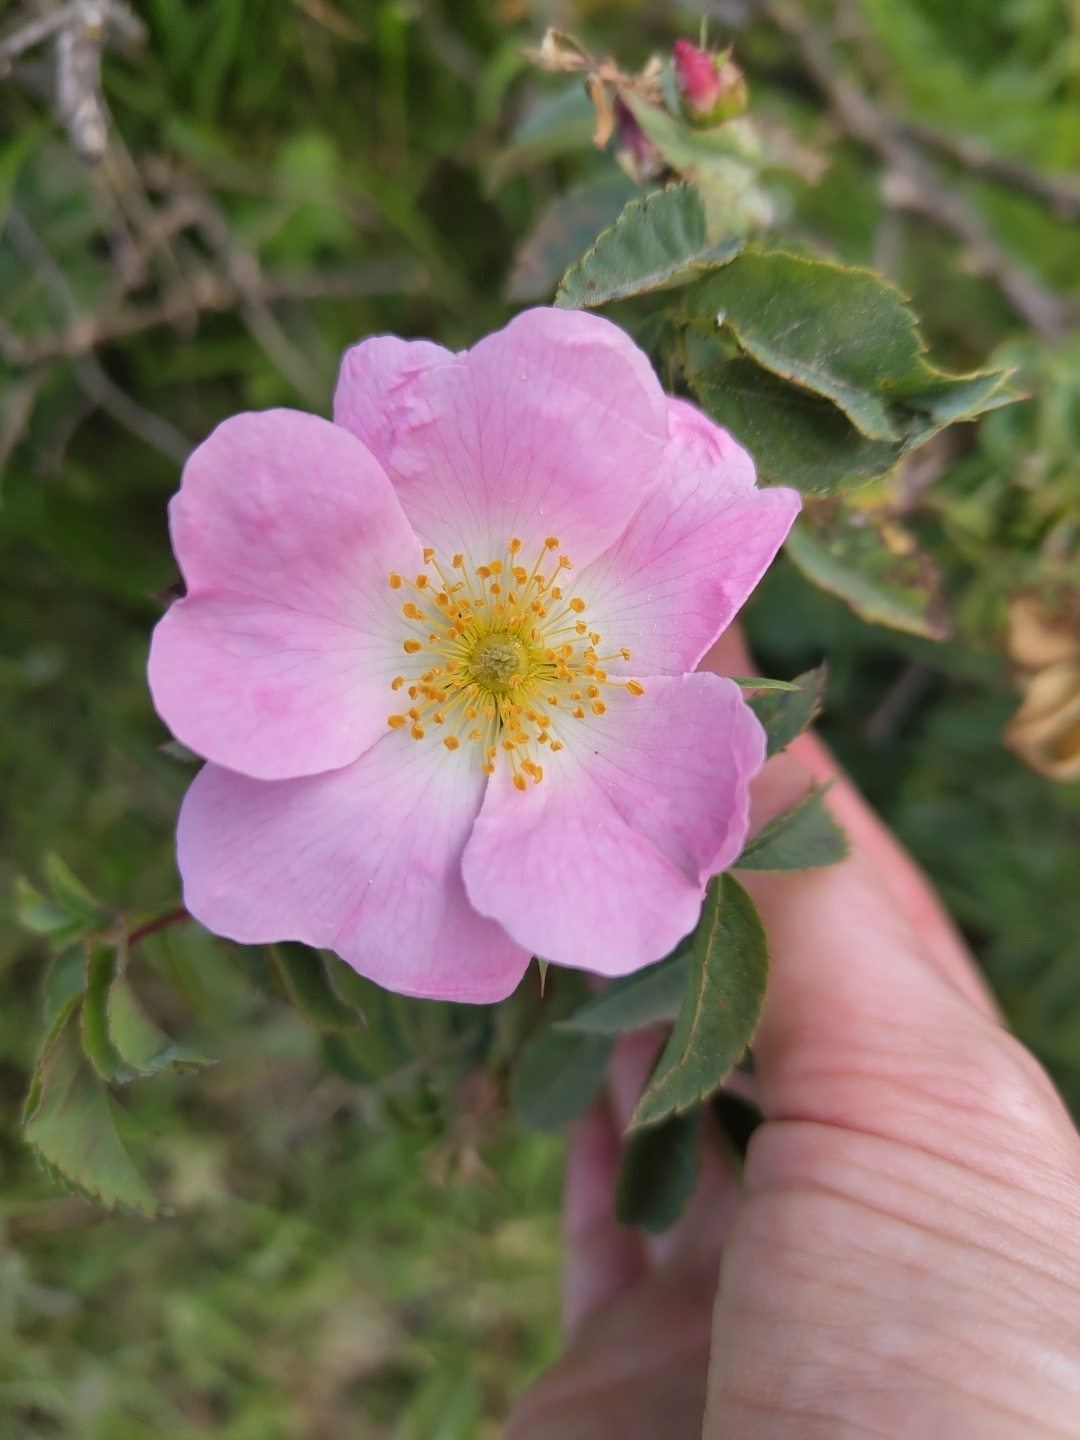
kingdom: Plantae
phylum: Tracheophyta
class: Magnoliopsida
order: Rosales
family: Rosaceae
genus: Rosa
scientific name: Rosa canina
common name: Dog rose
